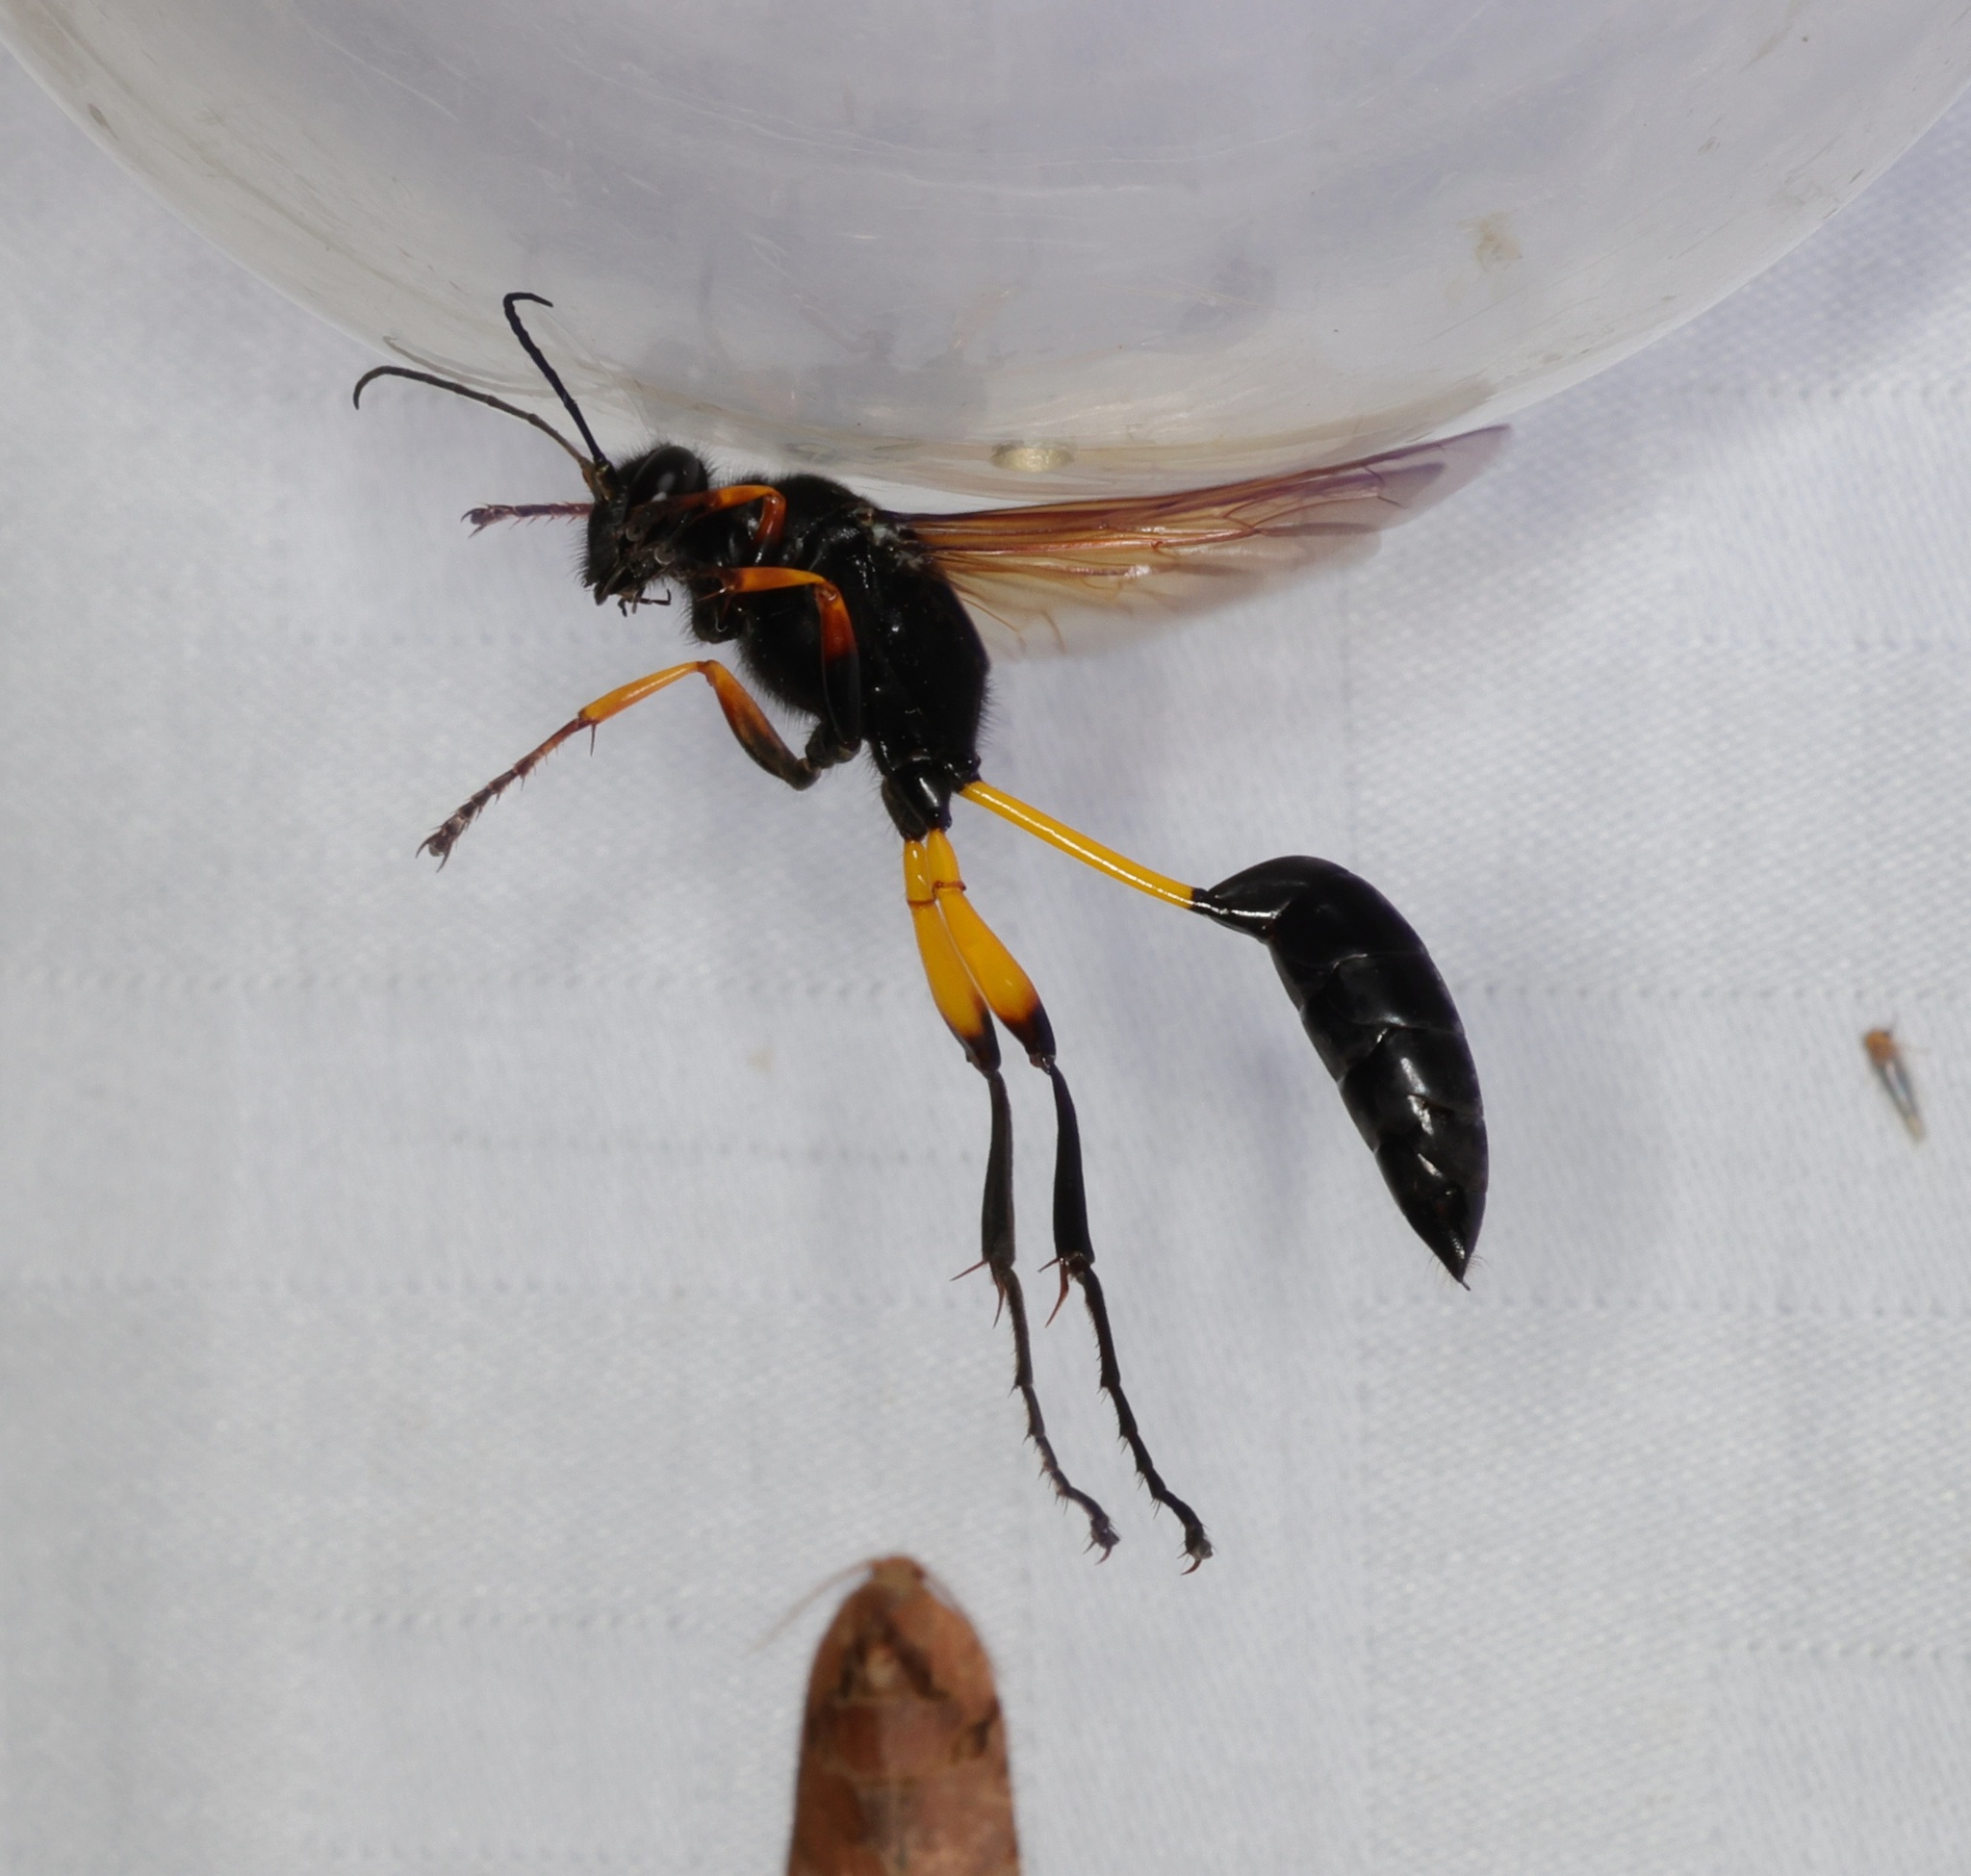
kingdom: Animalia
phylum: Arthropoda
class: Insecta
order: Hymenoptera
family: Sphecidae
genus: Sceliphron
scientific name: Sceliphron javanum
